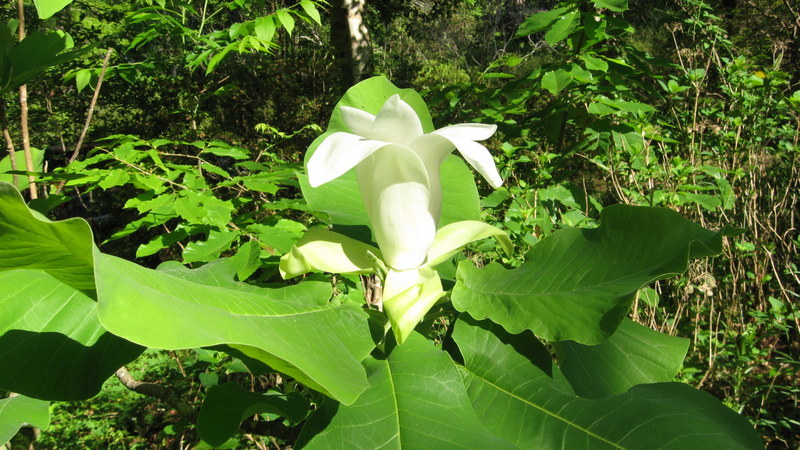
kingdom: Plantae
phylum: Tracheophyta
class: Magnoliopsida
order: Magnoliales
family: Magnoliaceae
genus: Magnolia
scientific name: Magnolia ashei
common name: Ashe's magnolia
